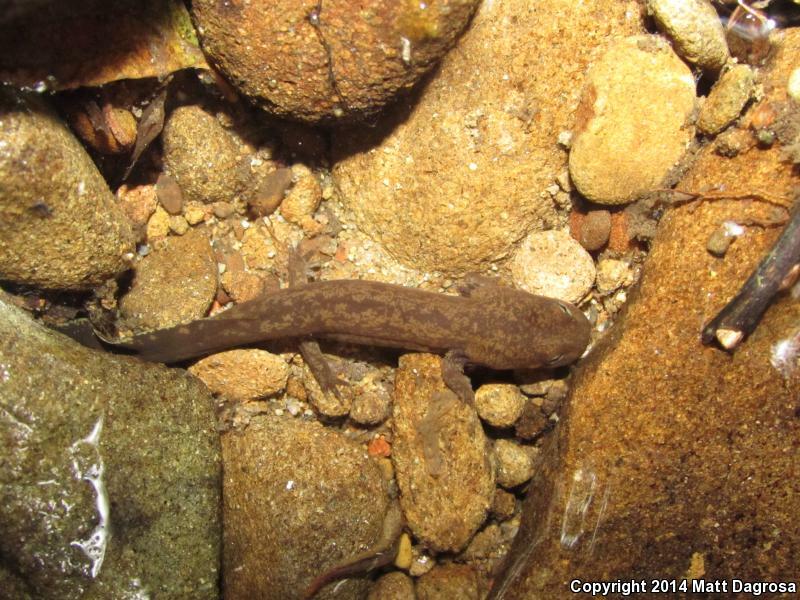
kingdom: Animalia
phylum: Chordata
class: Amphibia
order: Caudata
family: Ambystomatidae
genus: Dicamptodon
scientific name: Dicamptodon tenebrosus
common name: Coastal giant salamander
